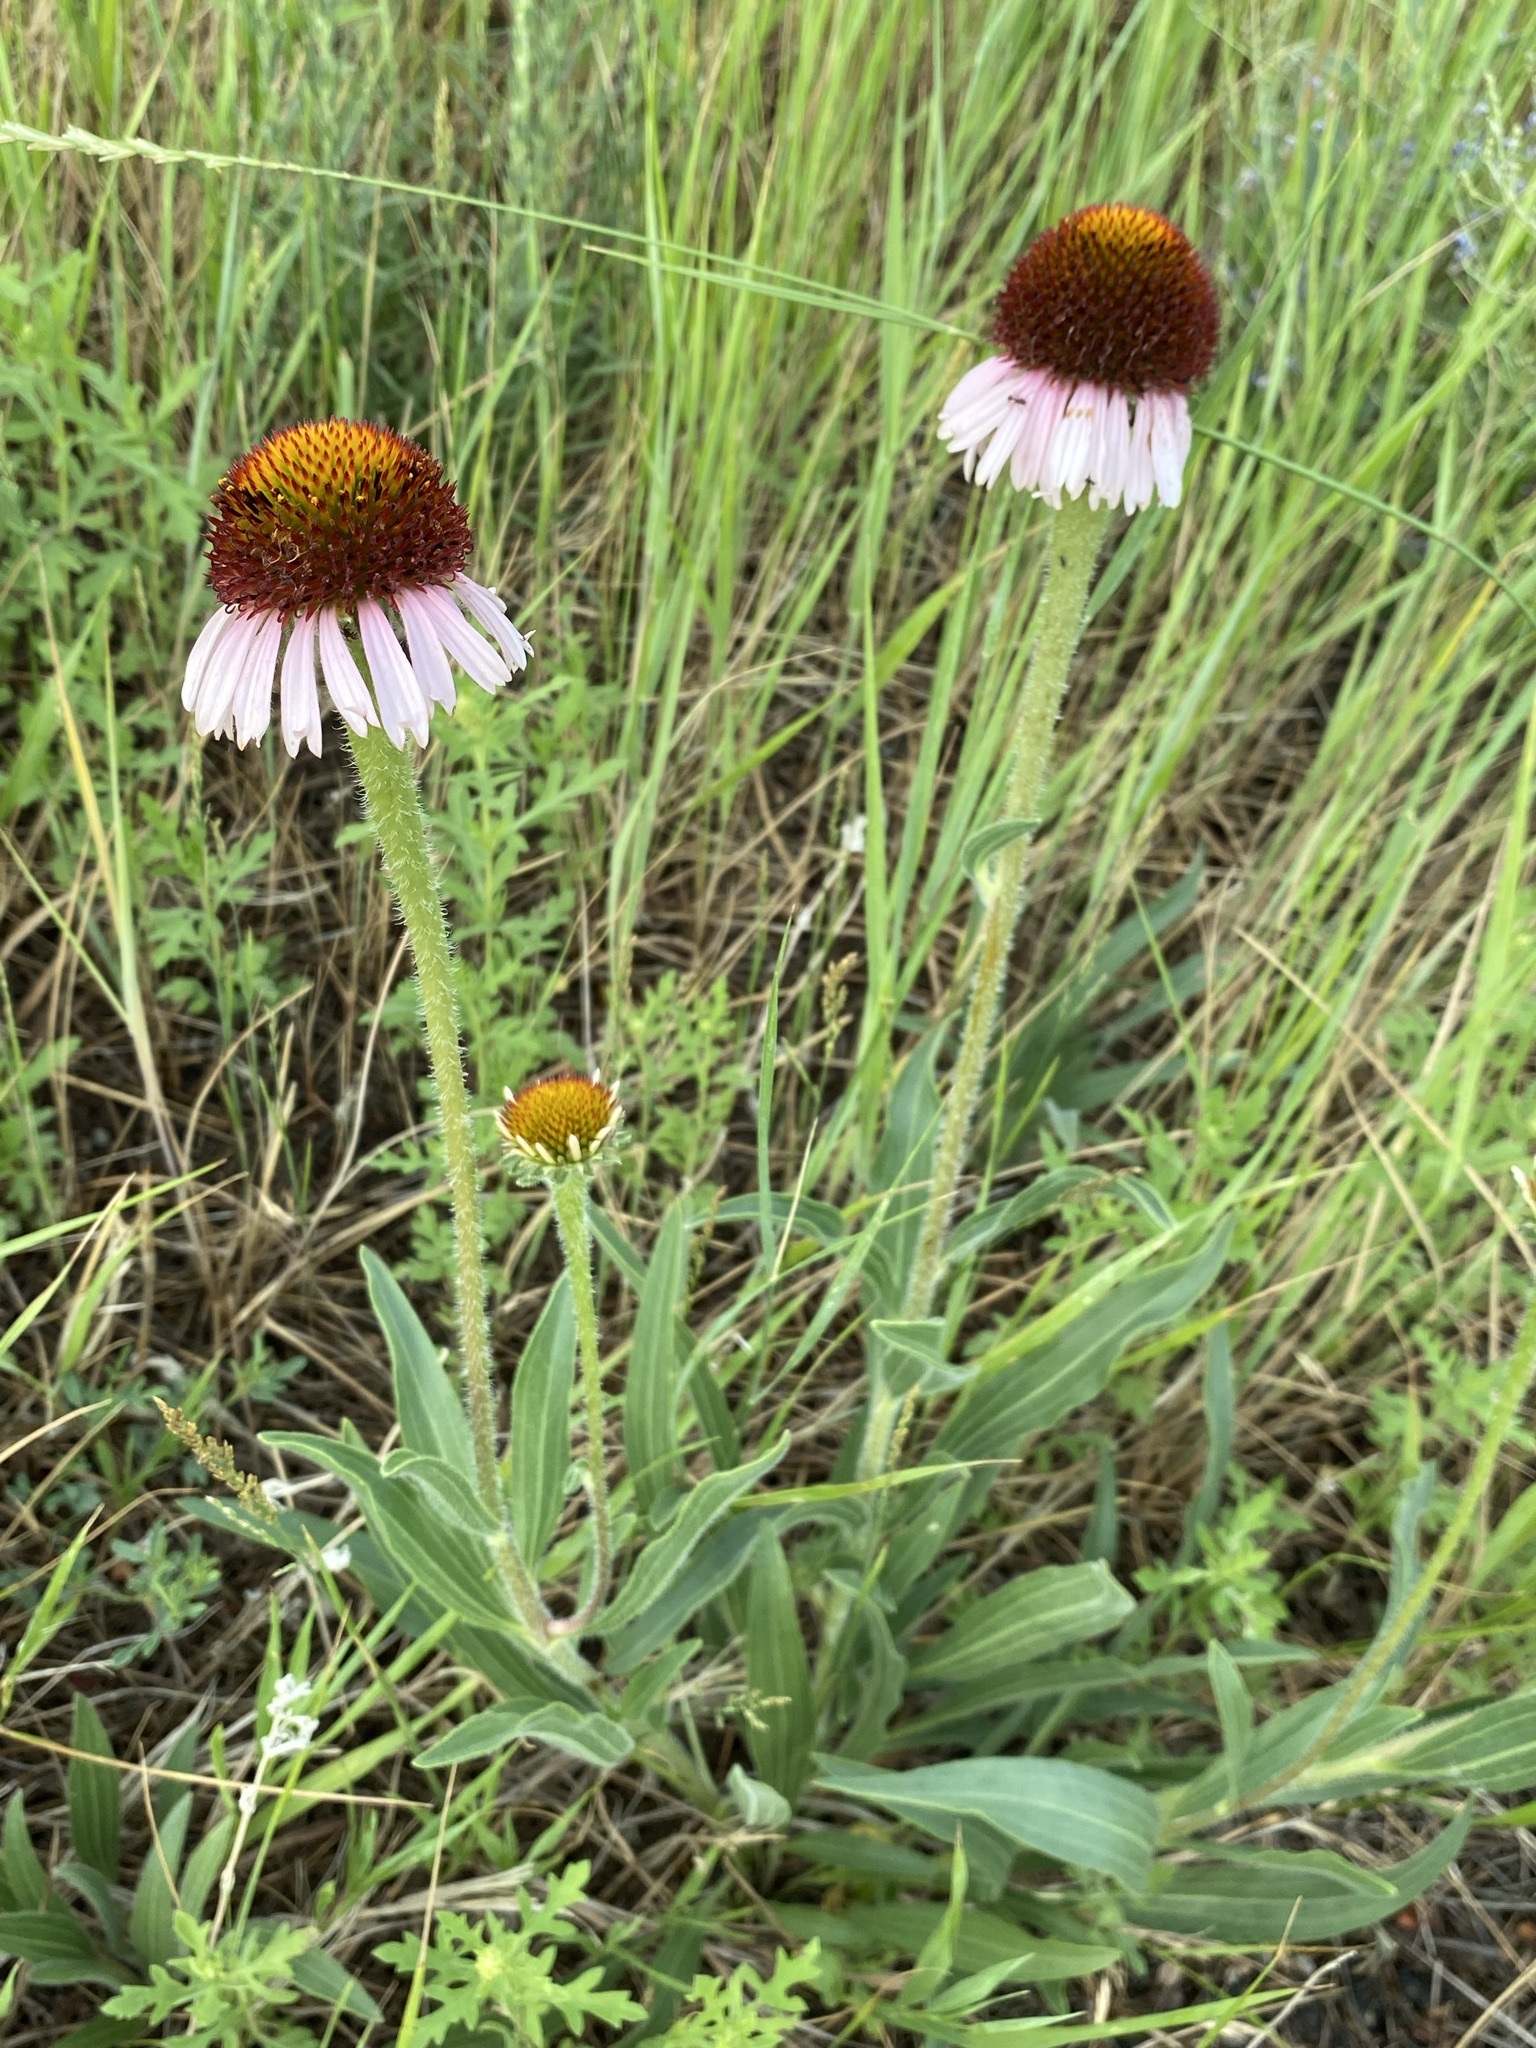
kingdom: Plantae
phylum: Tracheophyta
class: Magnoliopsida
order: Asterales
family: Asteraceae
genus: Echinacea
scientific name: Echinacea angustifolia
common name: Black-sampson echinacea
